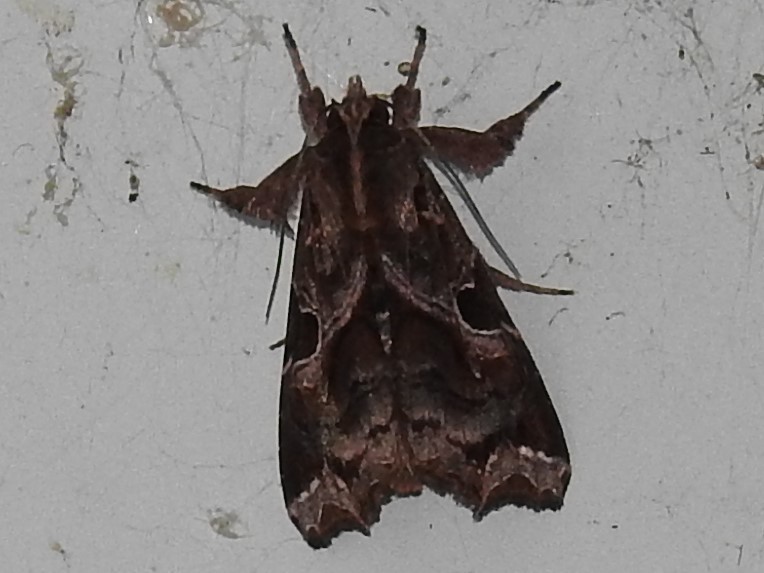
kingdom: Animalia
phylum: Arthropoda
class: Insecta
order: Lepidoptera
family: Noctuidae
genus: Callopistria
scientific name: Callopistria floridensis
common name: Florida fern moth
